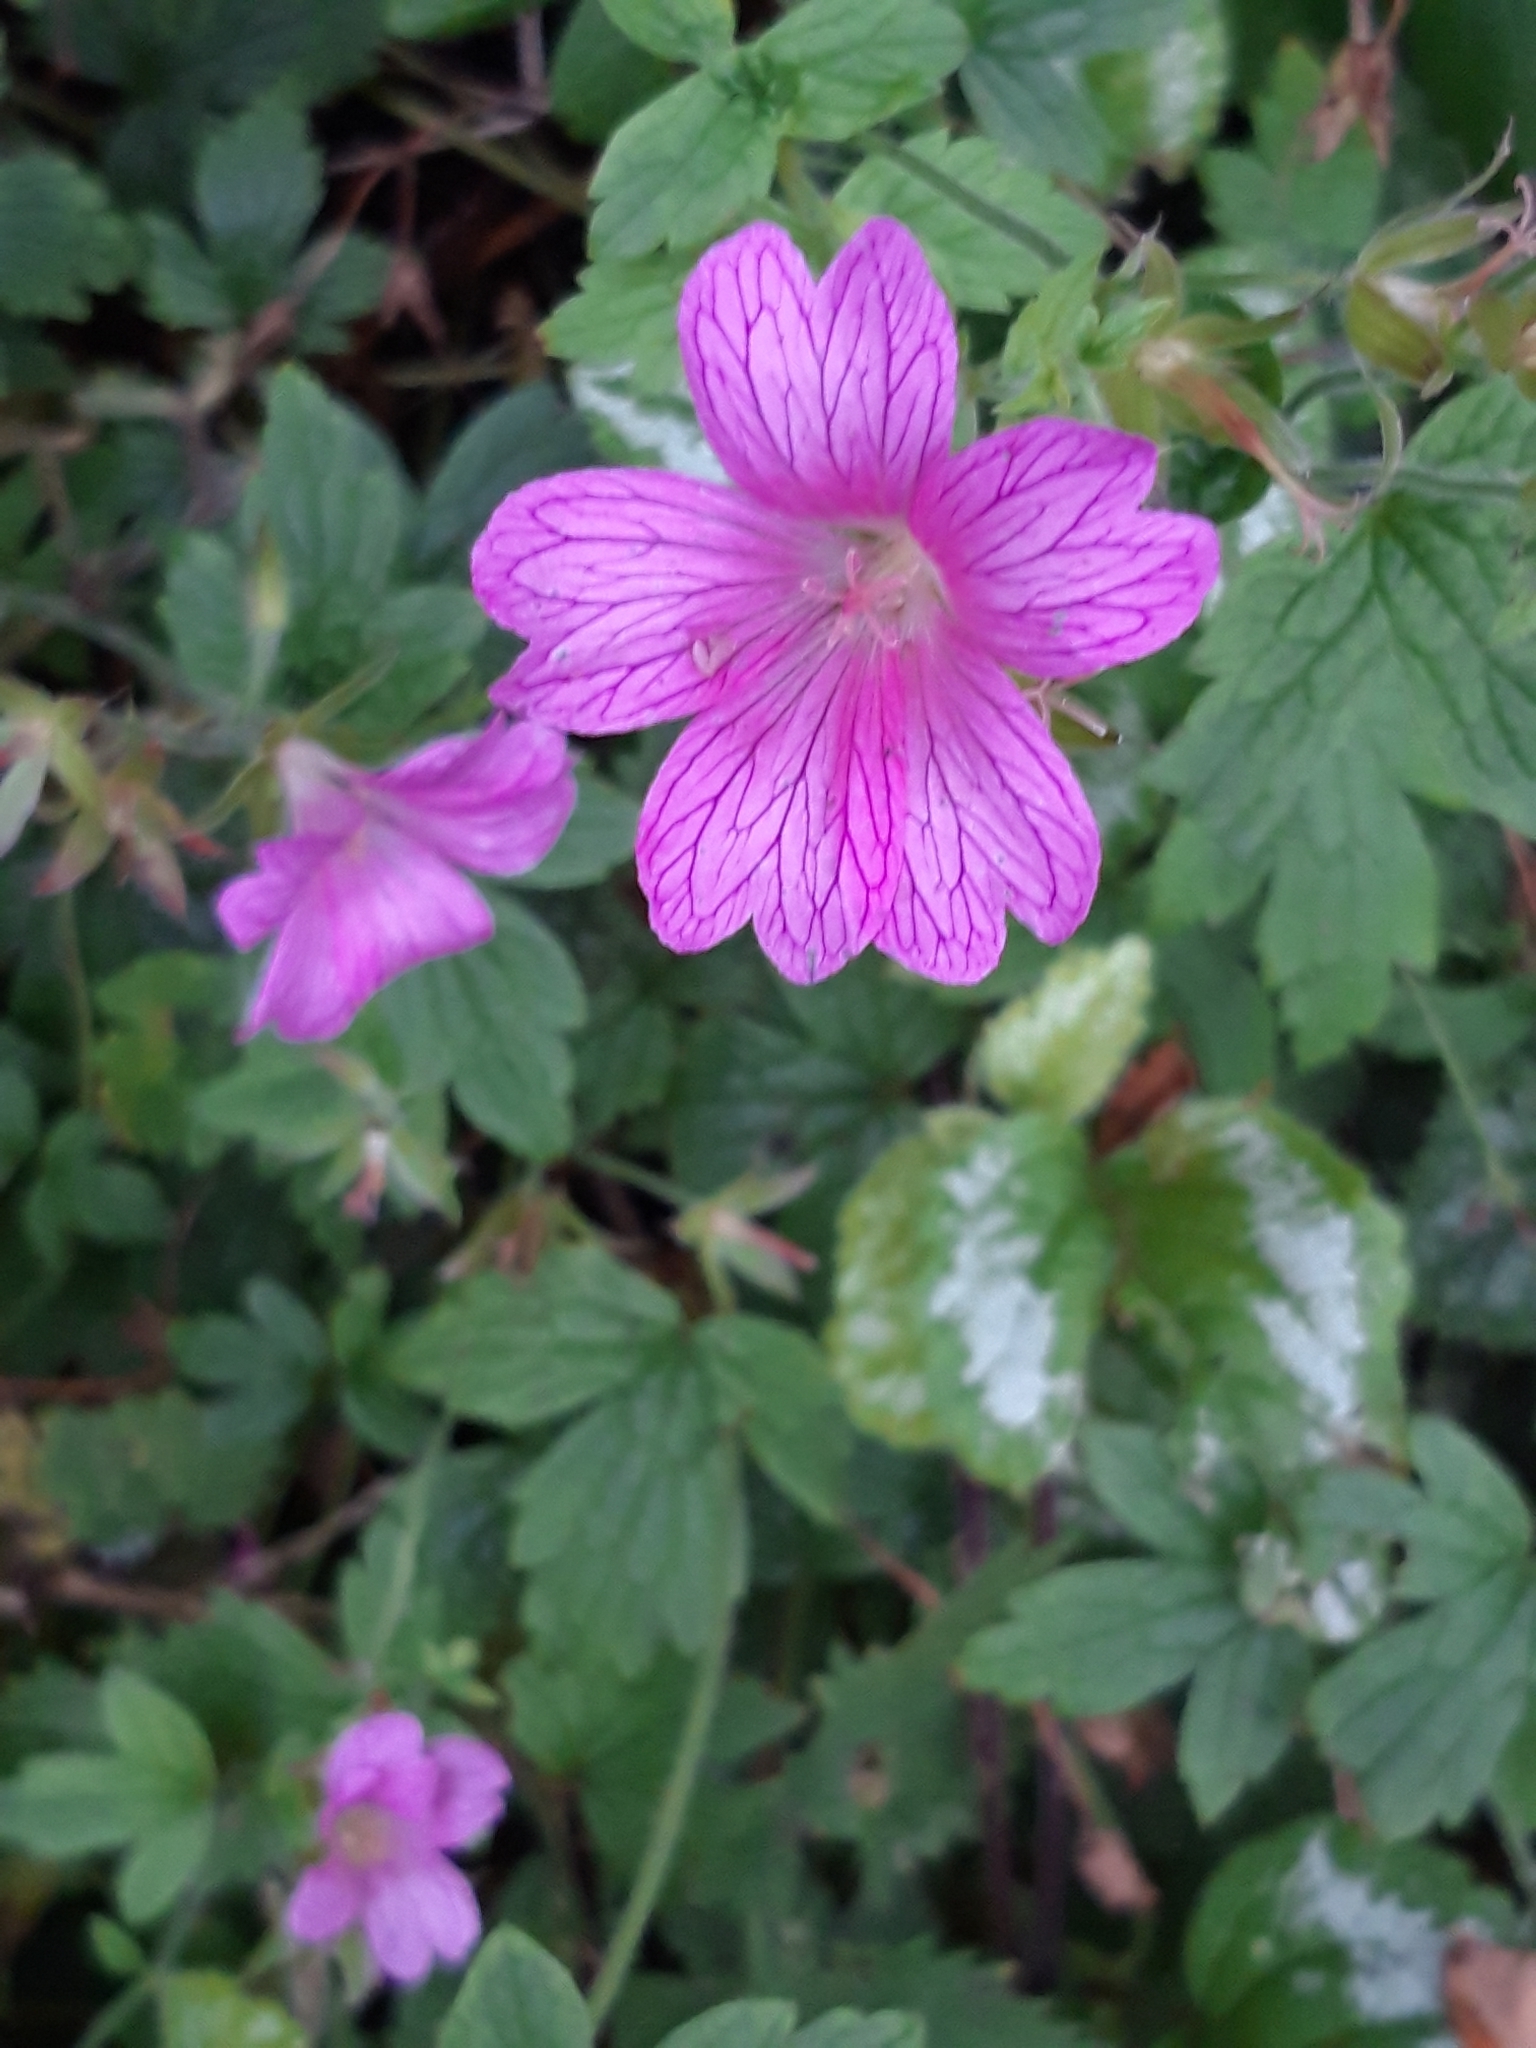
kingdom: Plantae
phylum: Tracheophyta
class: Magnoliopsida
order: Geraniales
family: Geraniaceae
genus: Geranium
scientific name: Geranium oxonianum
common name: Druce's crane's-bill
